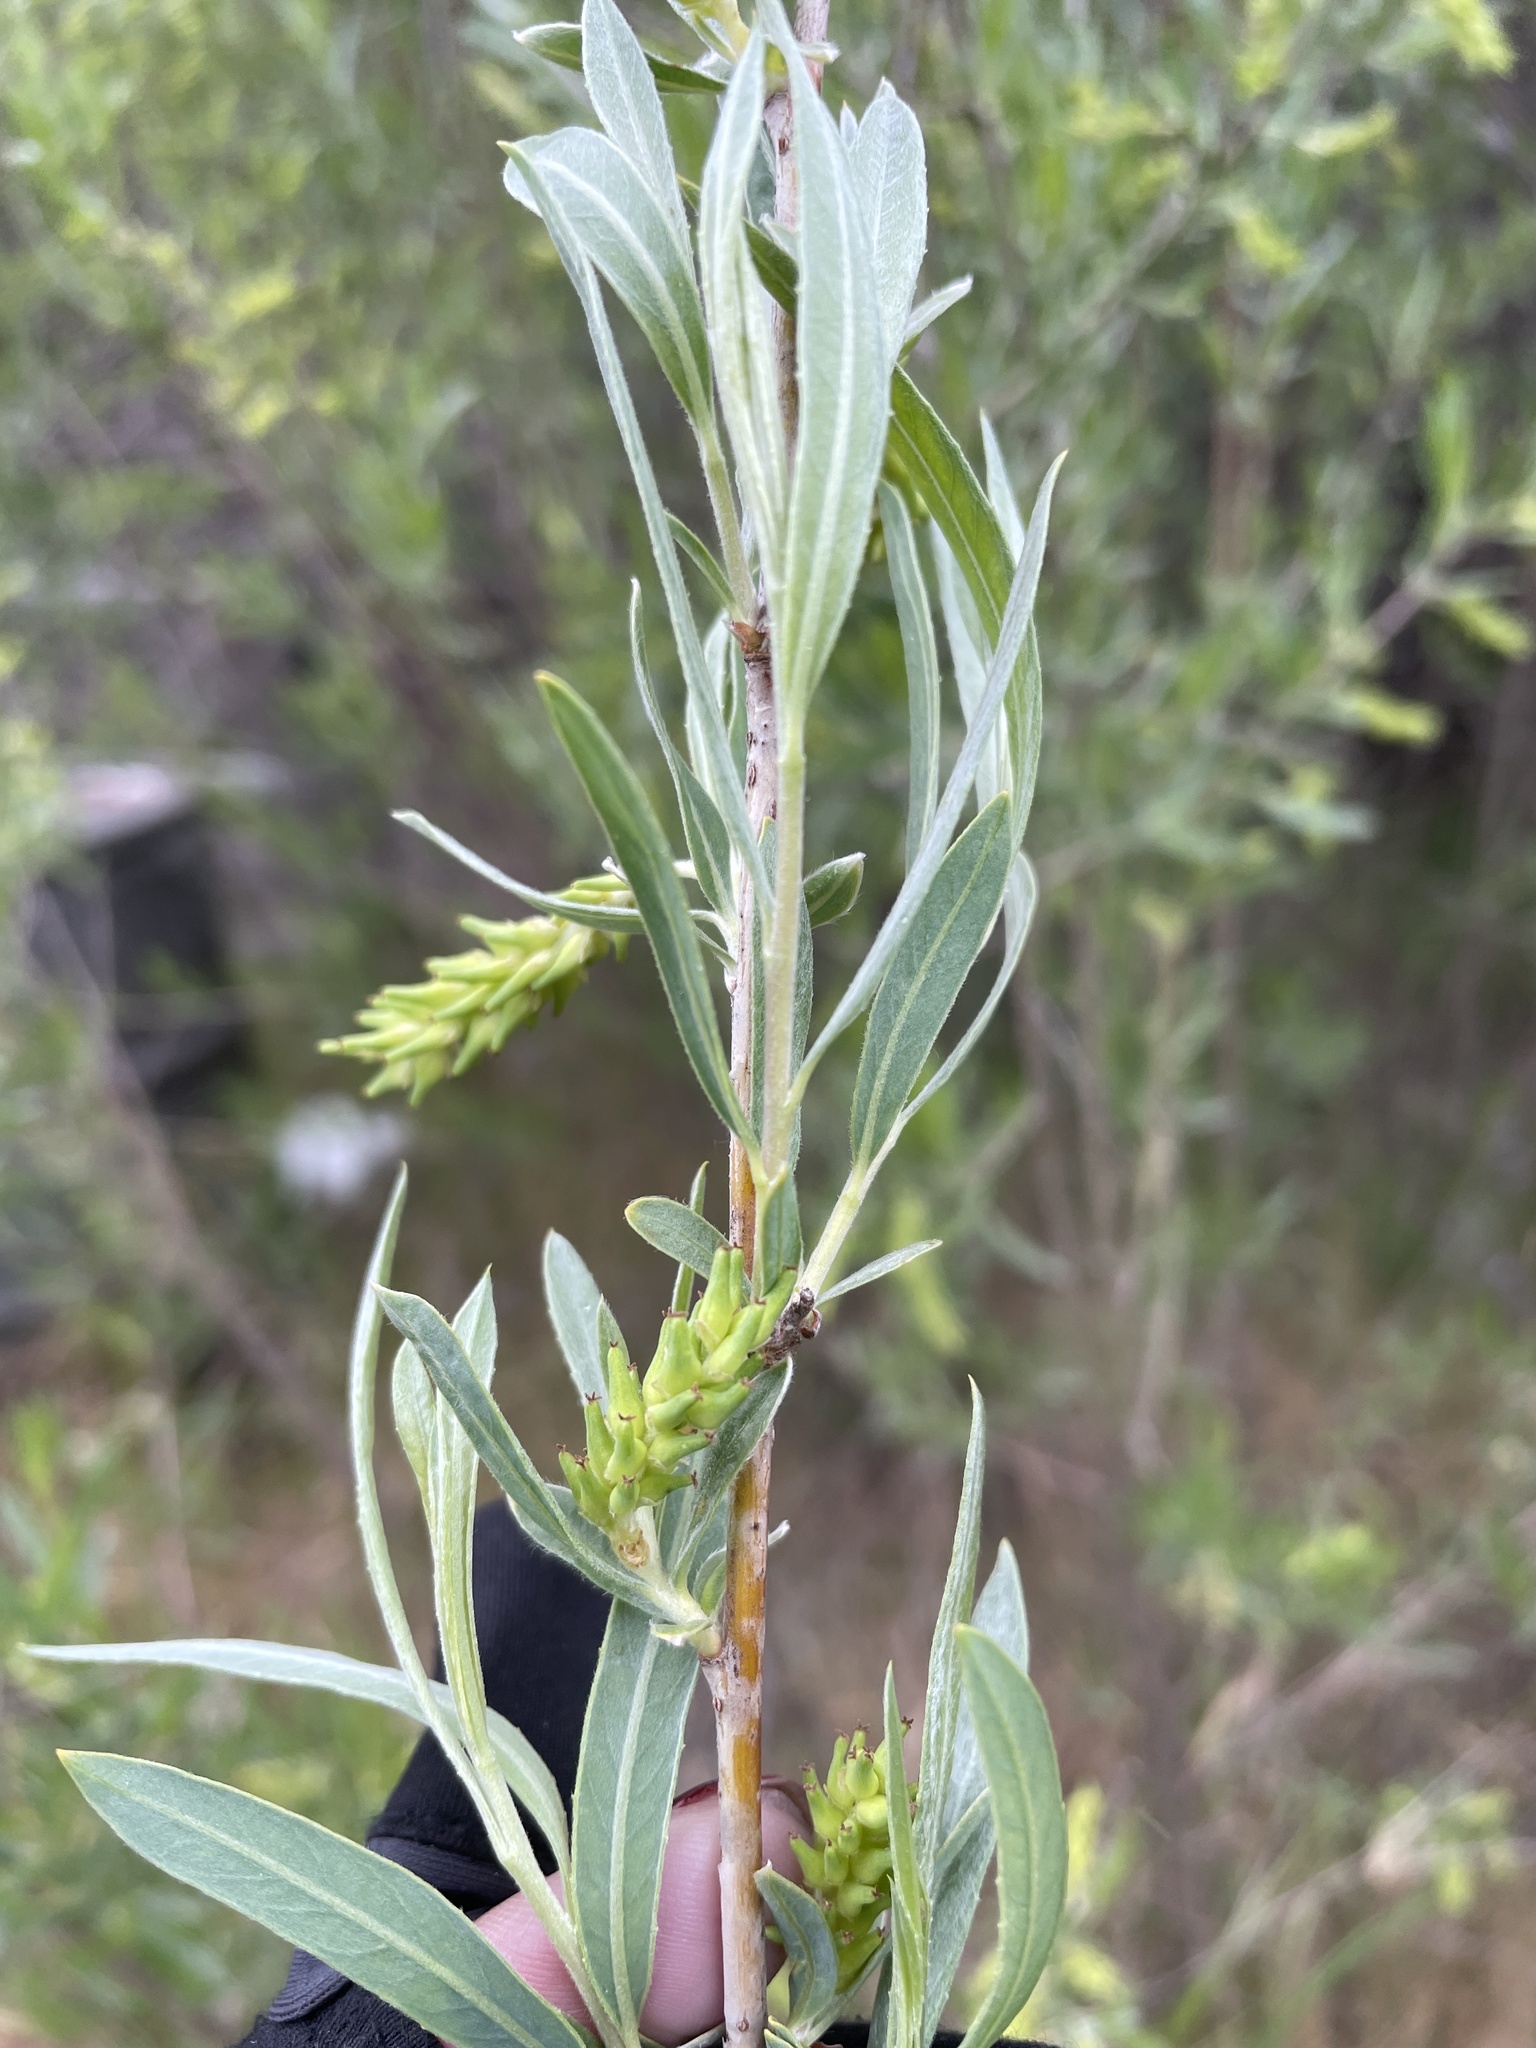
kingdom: Plantae
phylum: Tracheophyta
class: Magnoliopsida
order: Malpighiales
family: Salicaceae
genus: Salix
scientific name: Salix exigua
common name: Coyote willow
